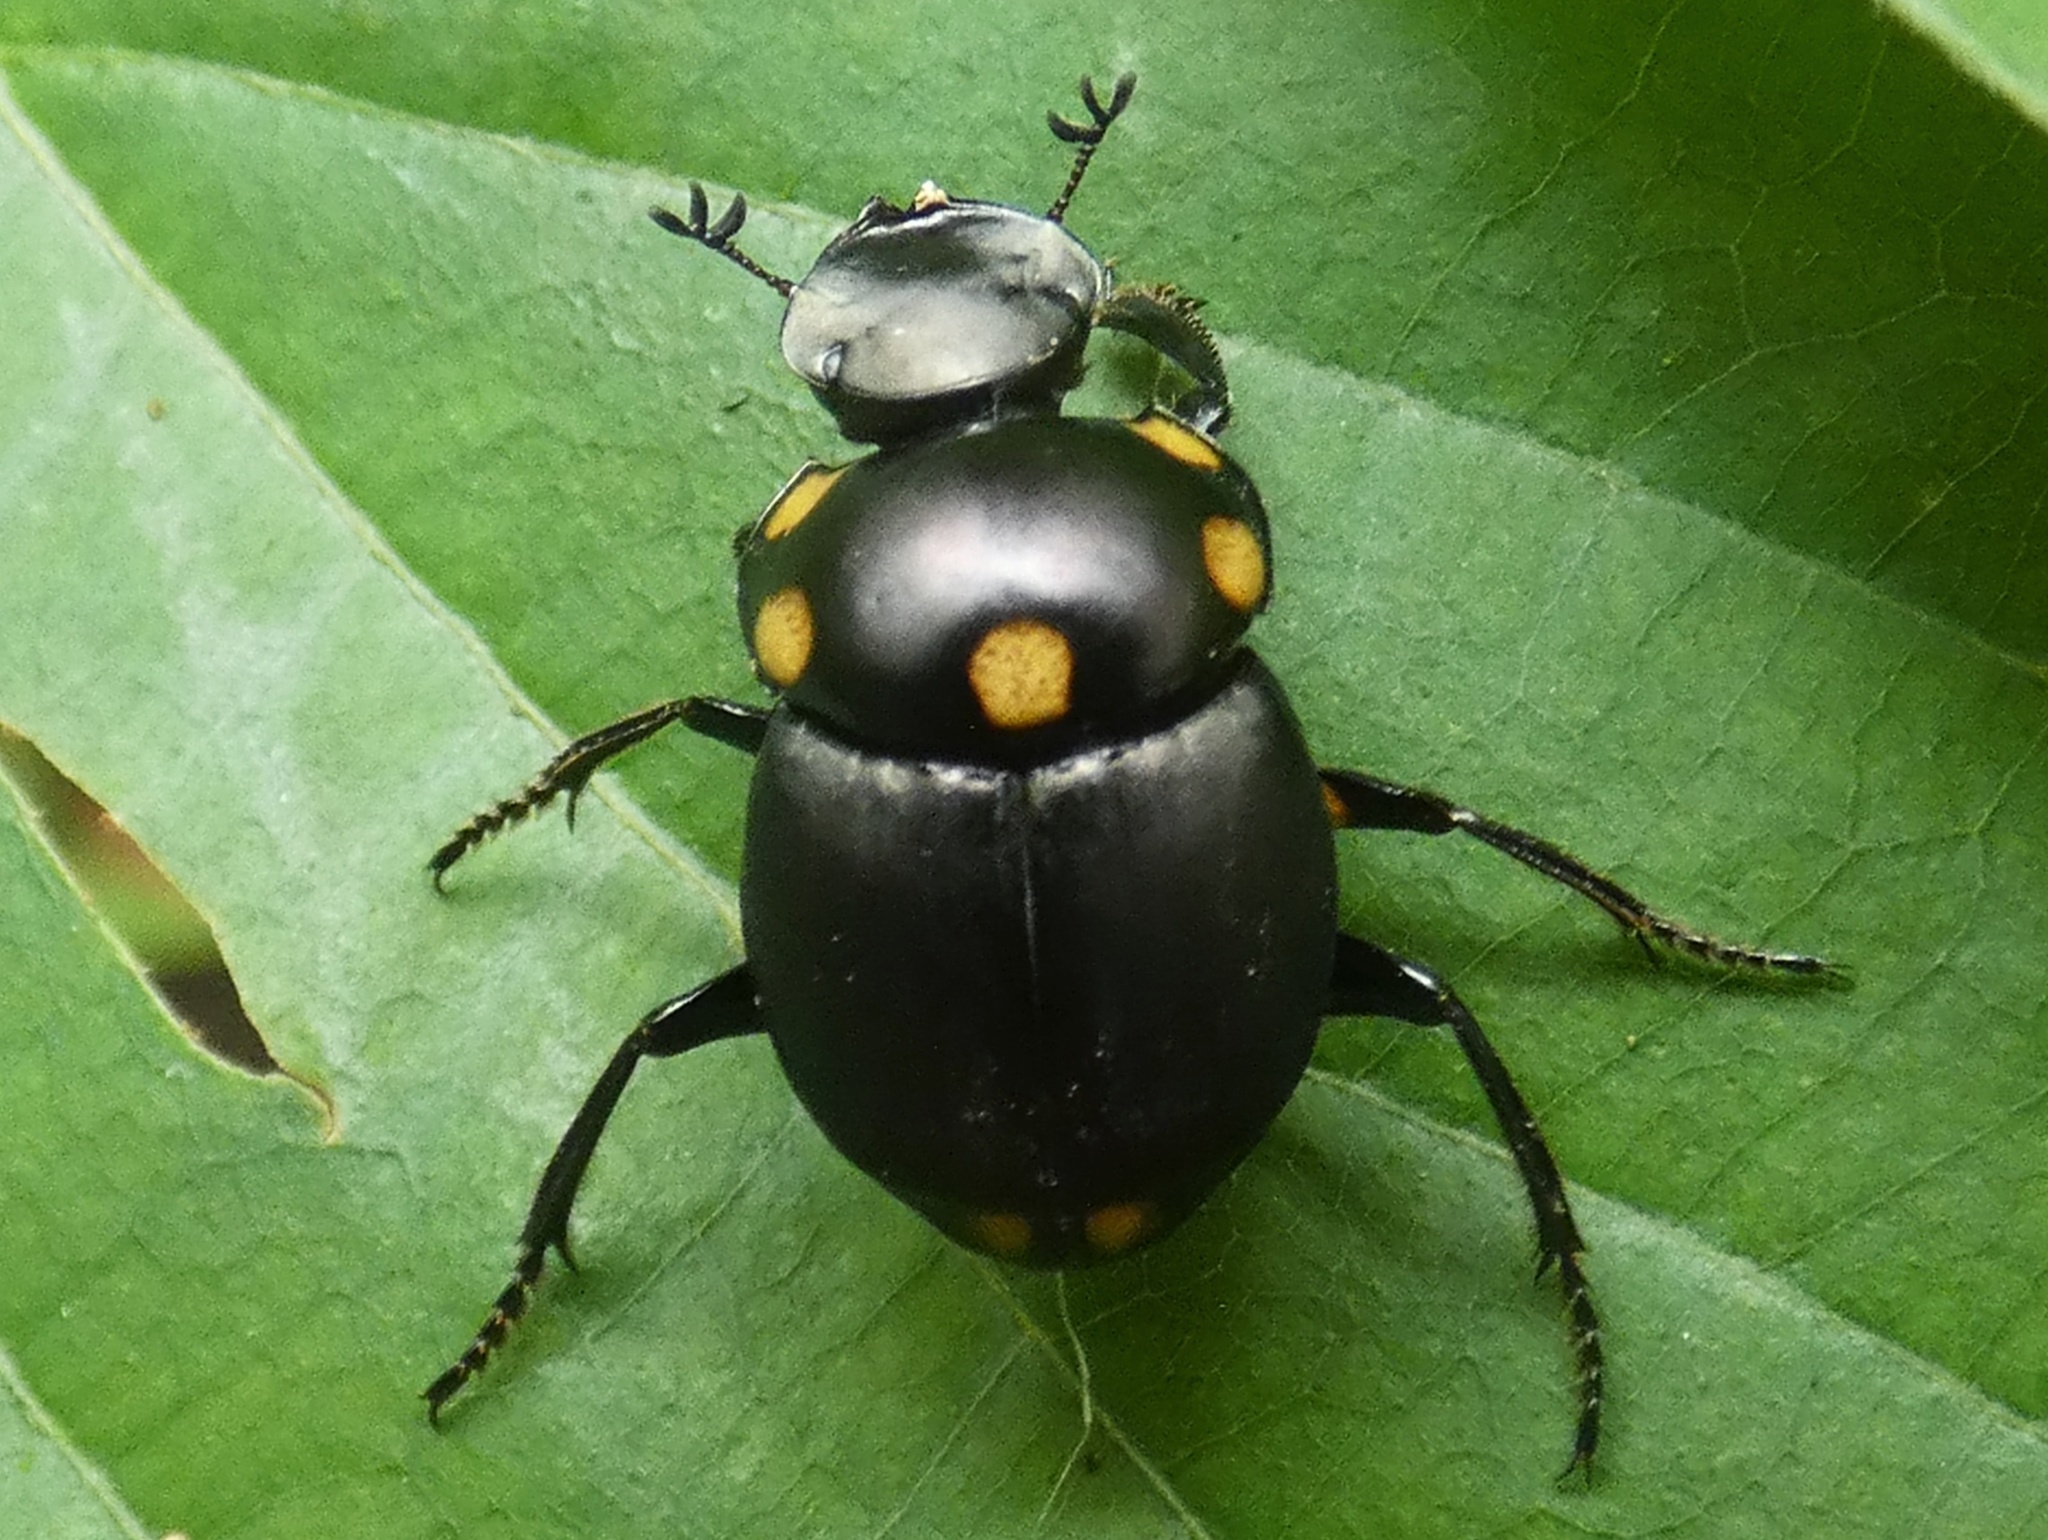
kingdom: Animalia
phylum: Arthropoda
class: Insecta
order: Coleoptera
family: Scarabaeidae
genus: Canthon
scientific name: Canthon septemmaculatus
